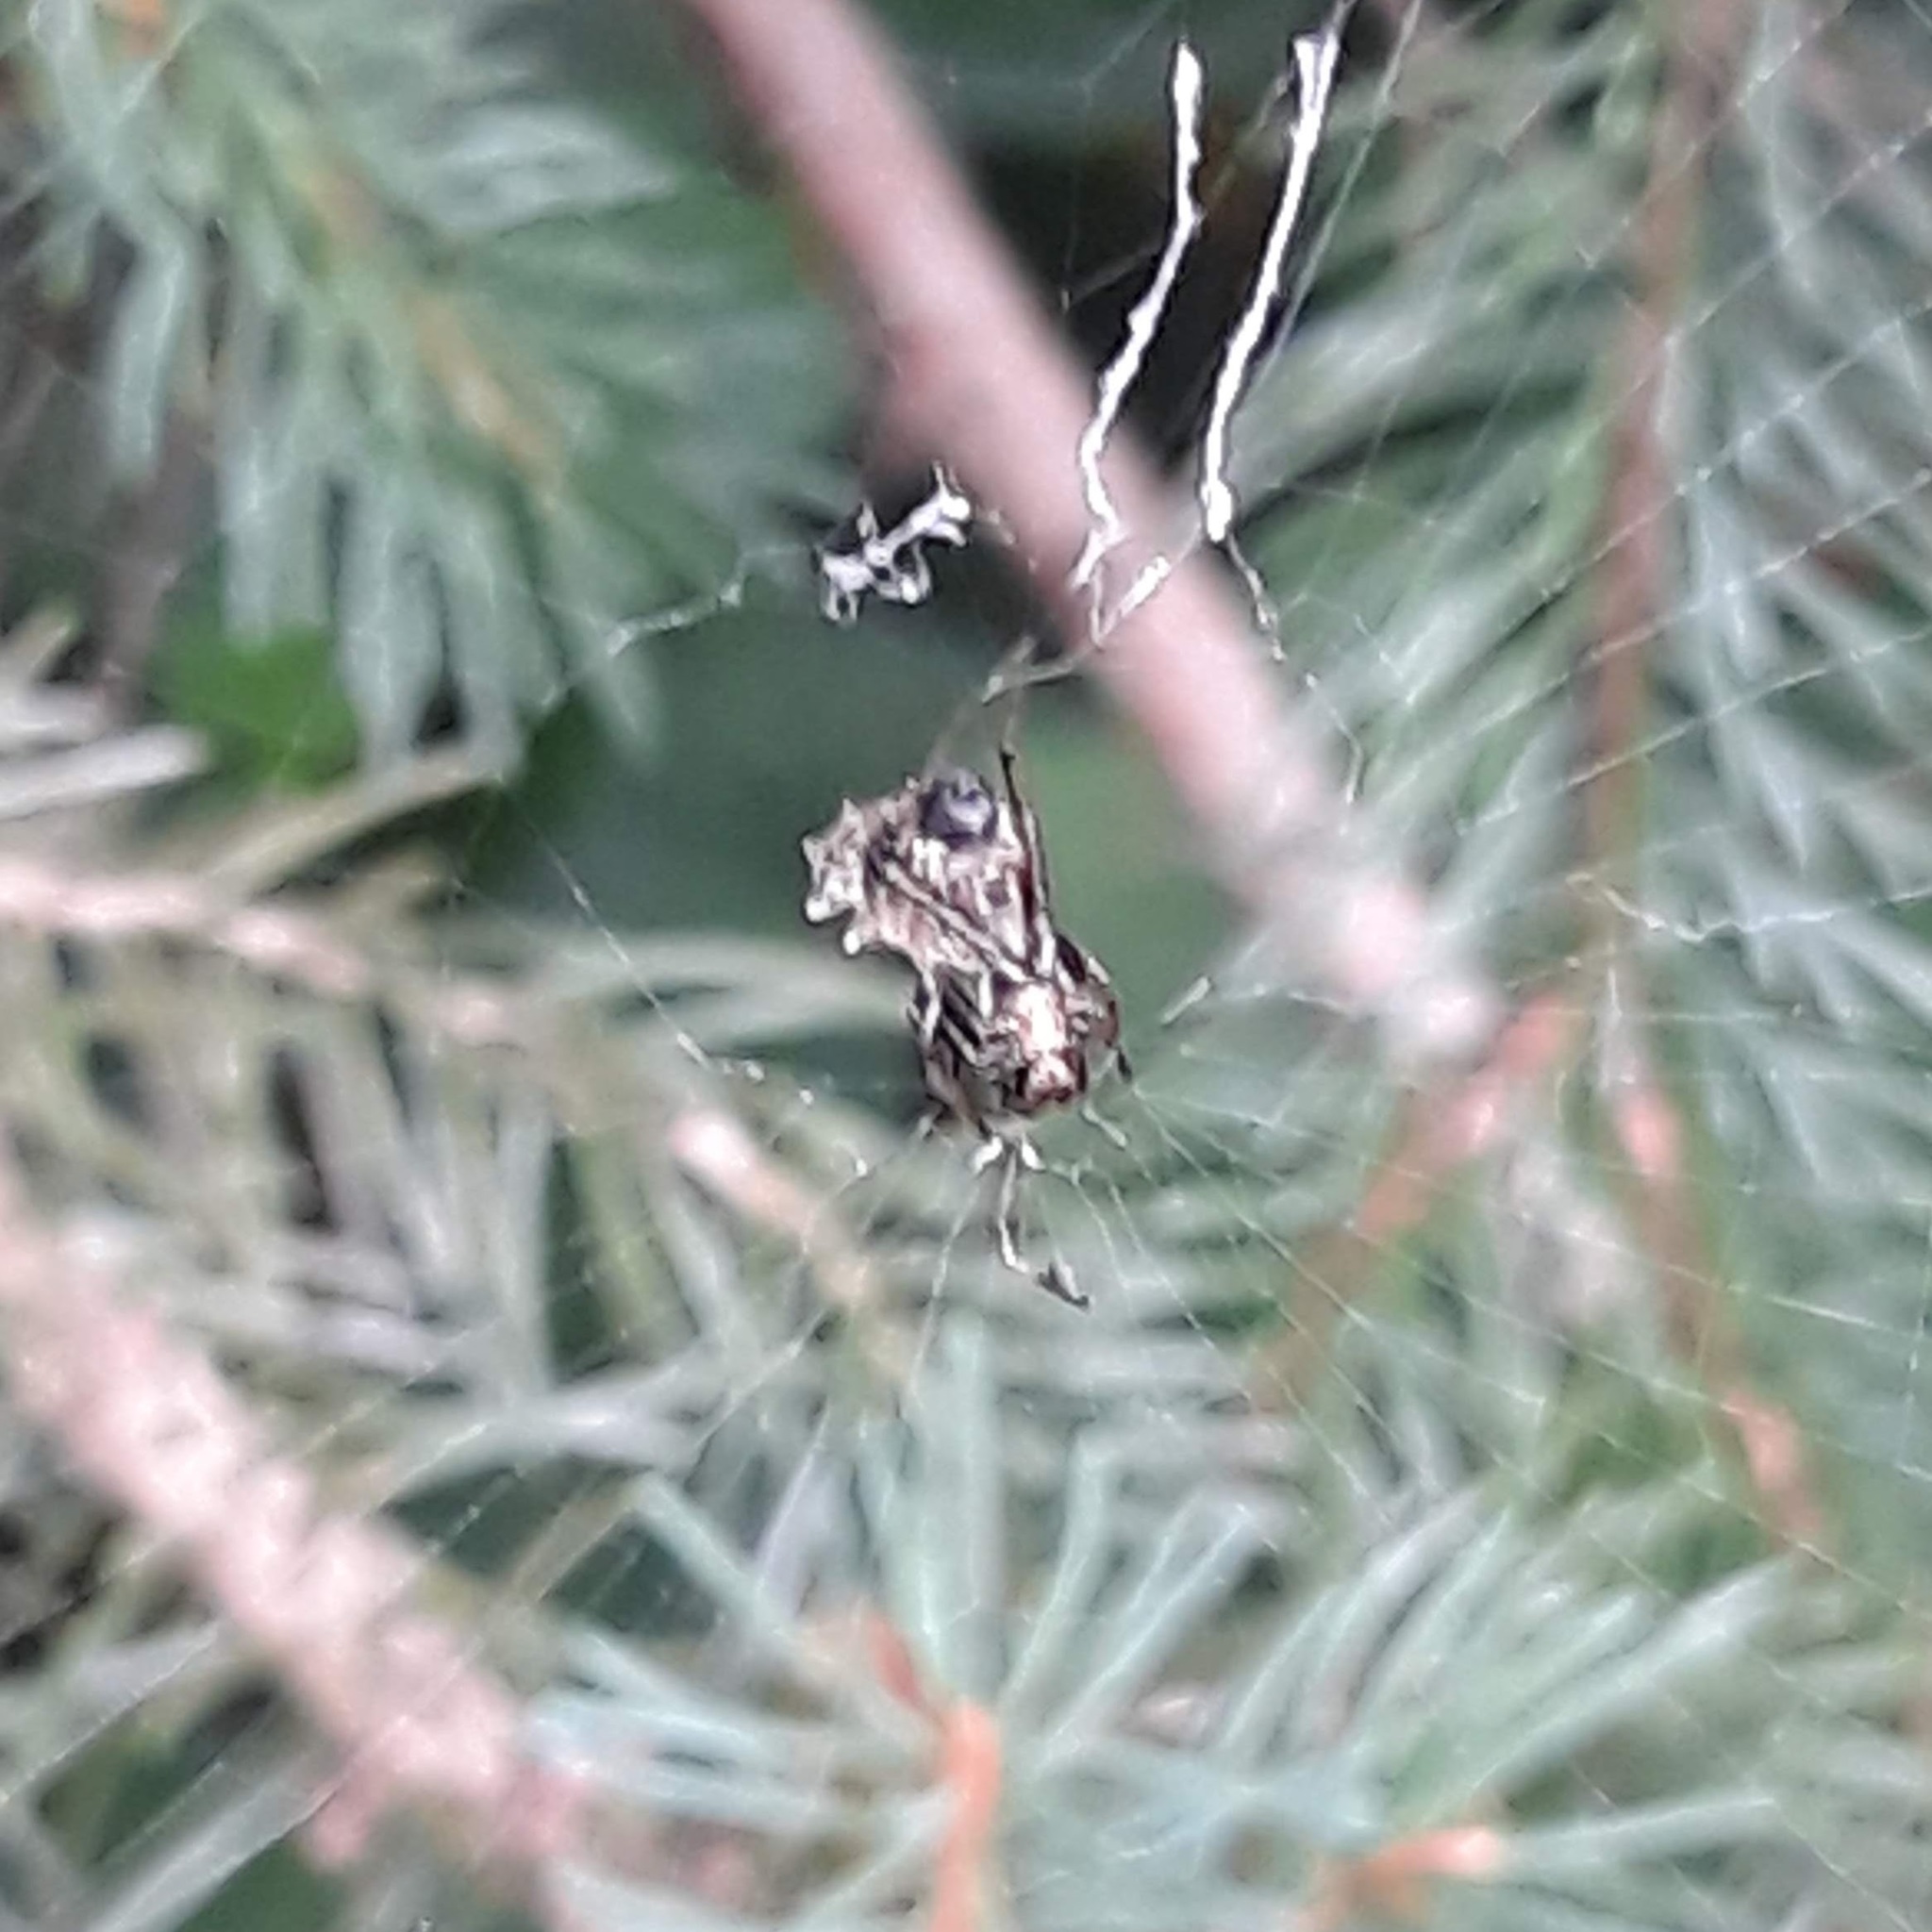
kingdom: Animalia
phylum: Arthropoda
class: Arachnida
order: Araneae
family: Araneidae
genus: Micrathena
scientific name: Micrathena gracilis
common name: Orb weavers
